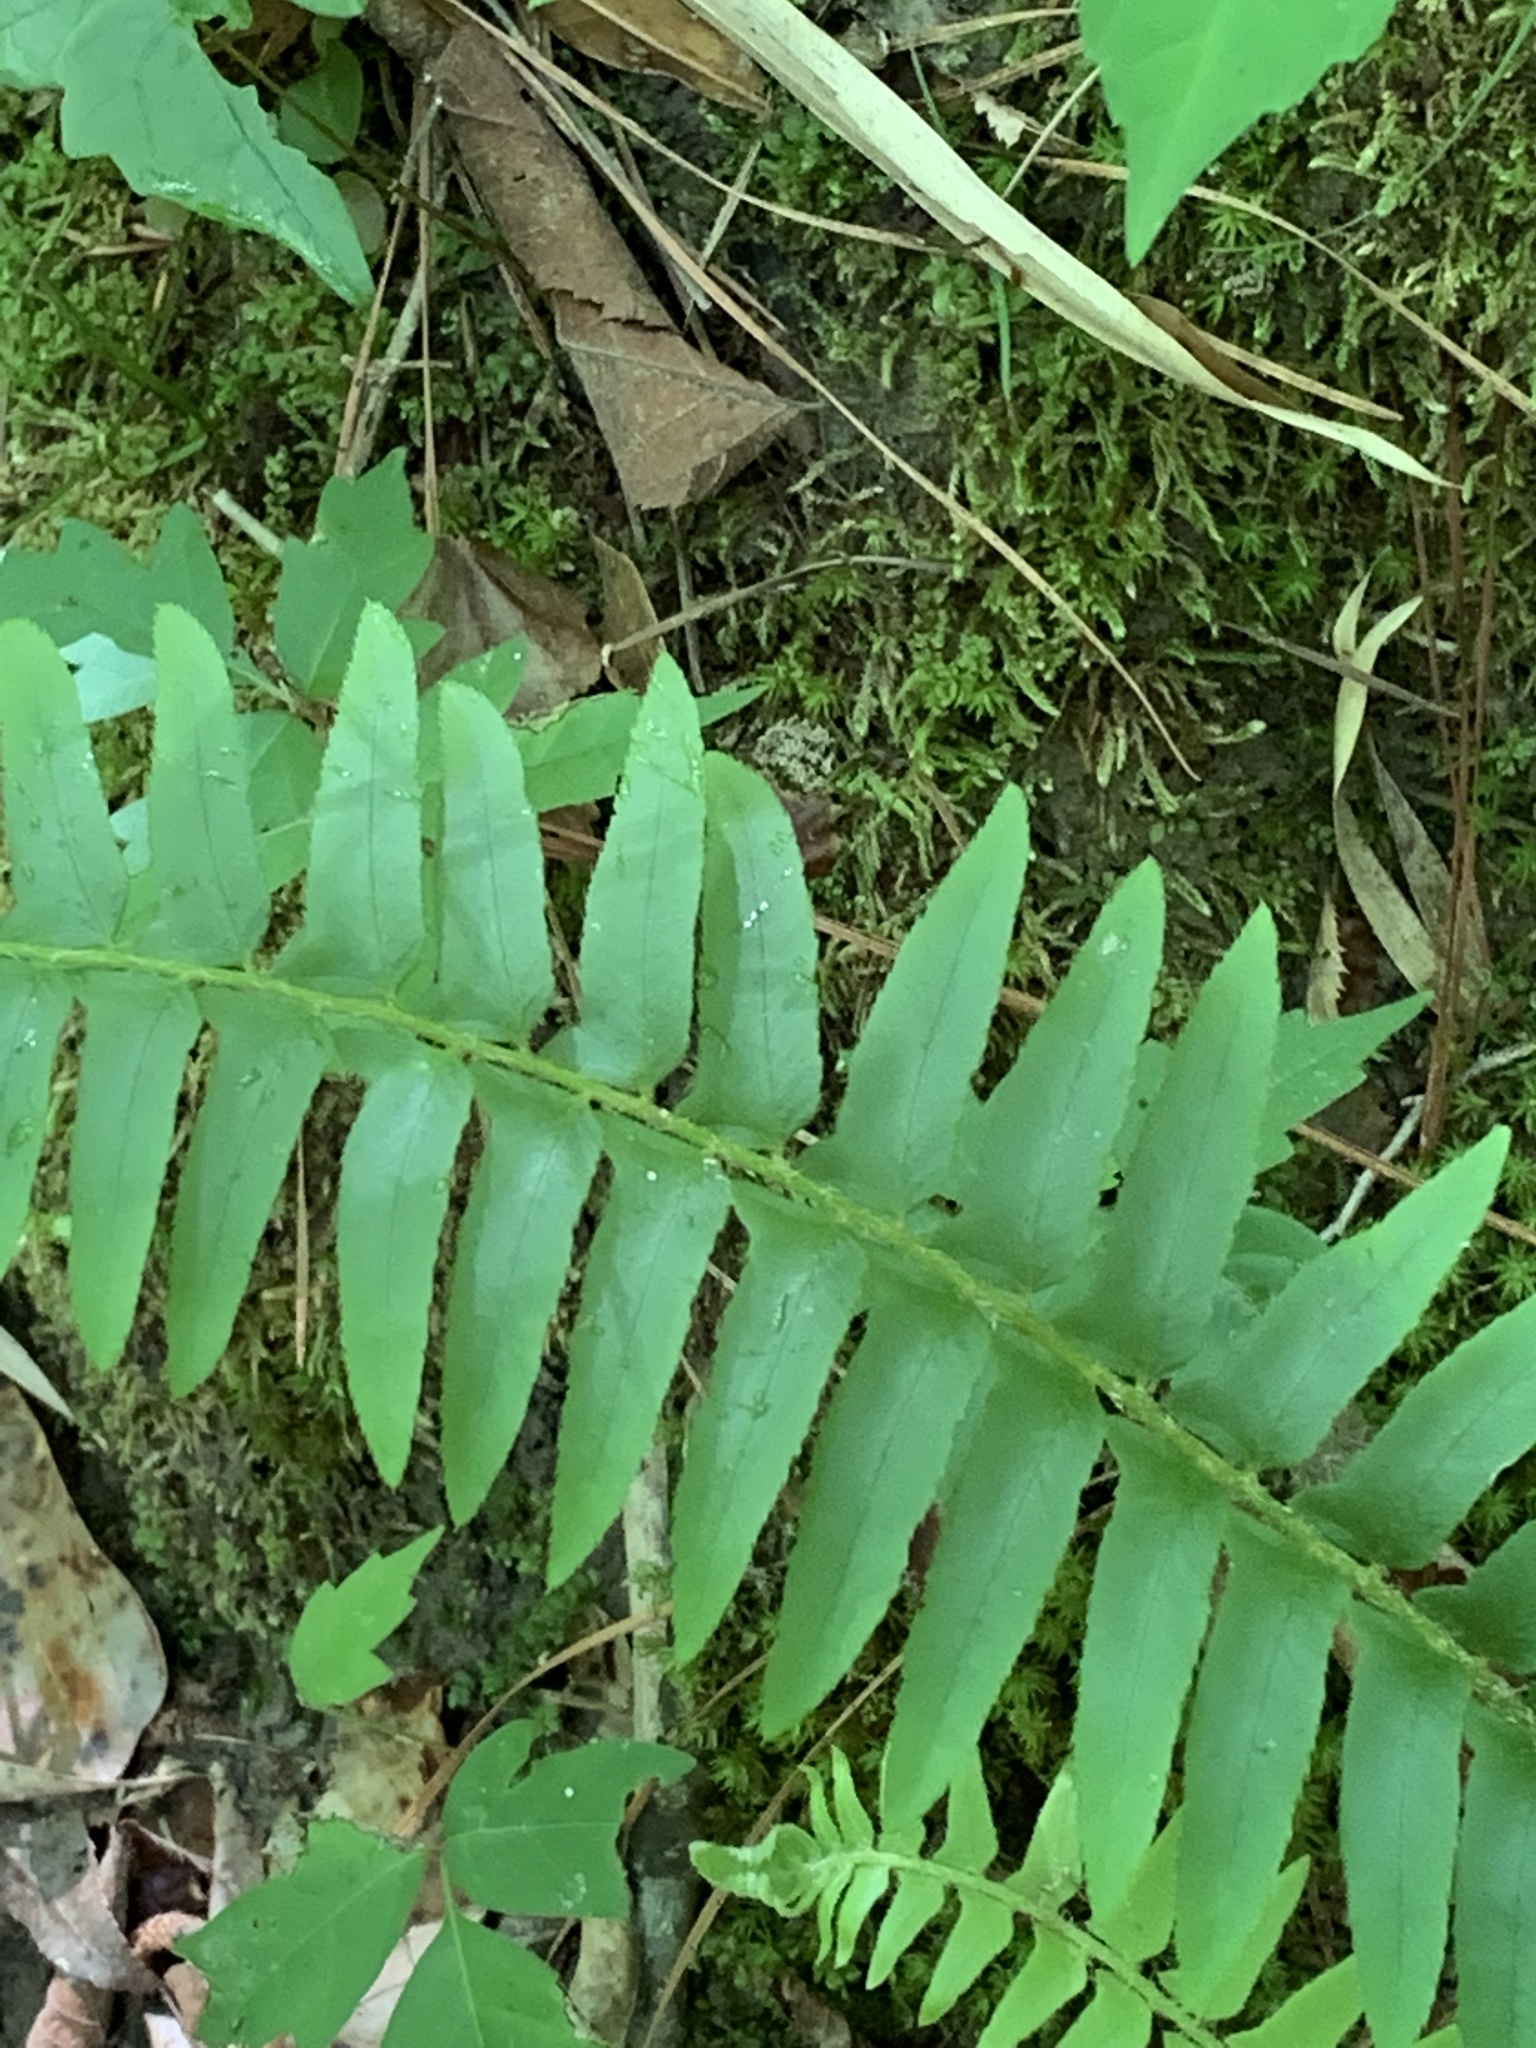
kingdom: Plantae
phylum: Tracheophyta
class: Polypodiopsida
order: Polypodiales
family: Dryopteridaceae
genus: Polystichum
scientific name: Polystichum acrostichoides
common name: Christmas fern
